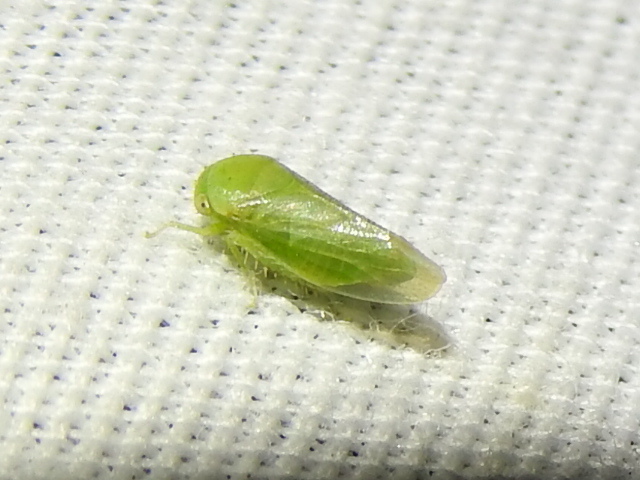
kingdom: Animalia
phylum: Arthropoda
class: Insecta
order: Hemiptera
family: Cicadellidae
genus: Penestragania
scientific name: Penestragania robusta
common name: Robust leafhopper
